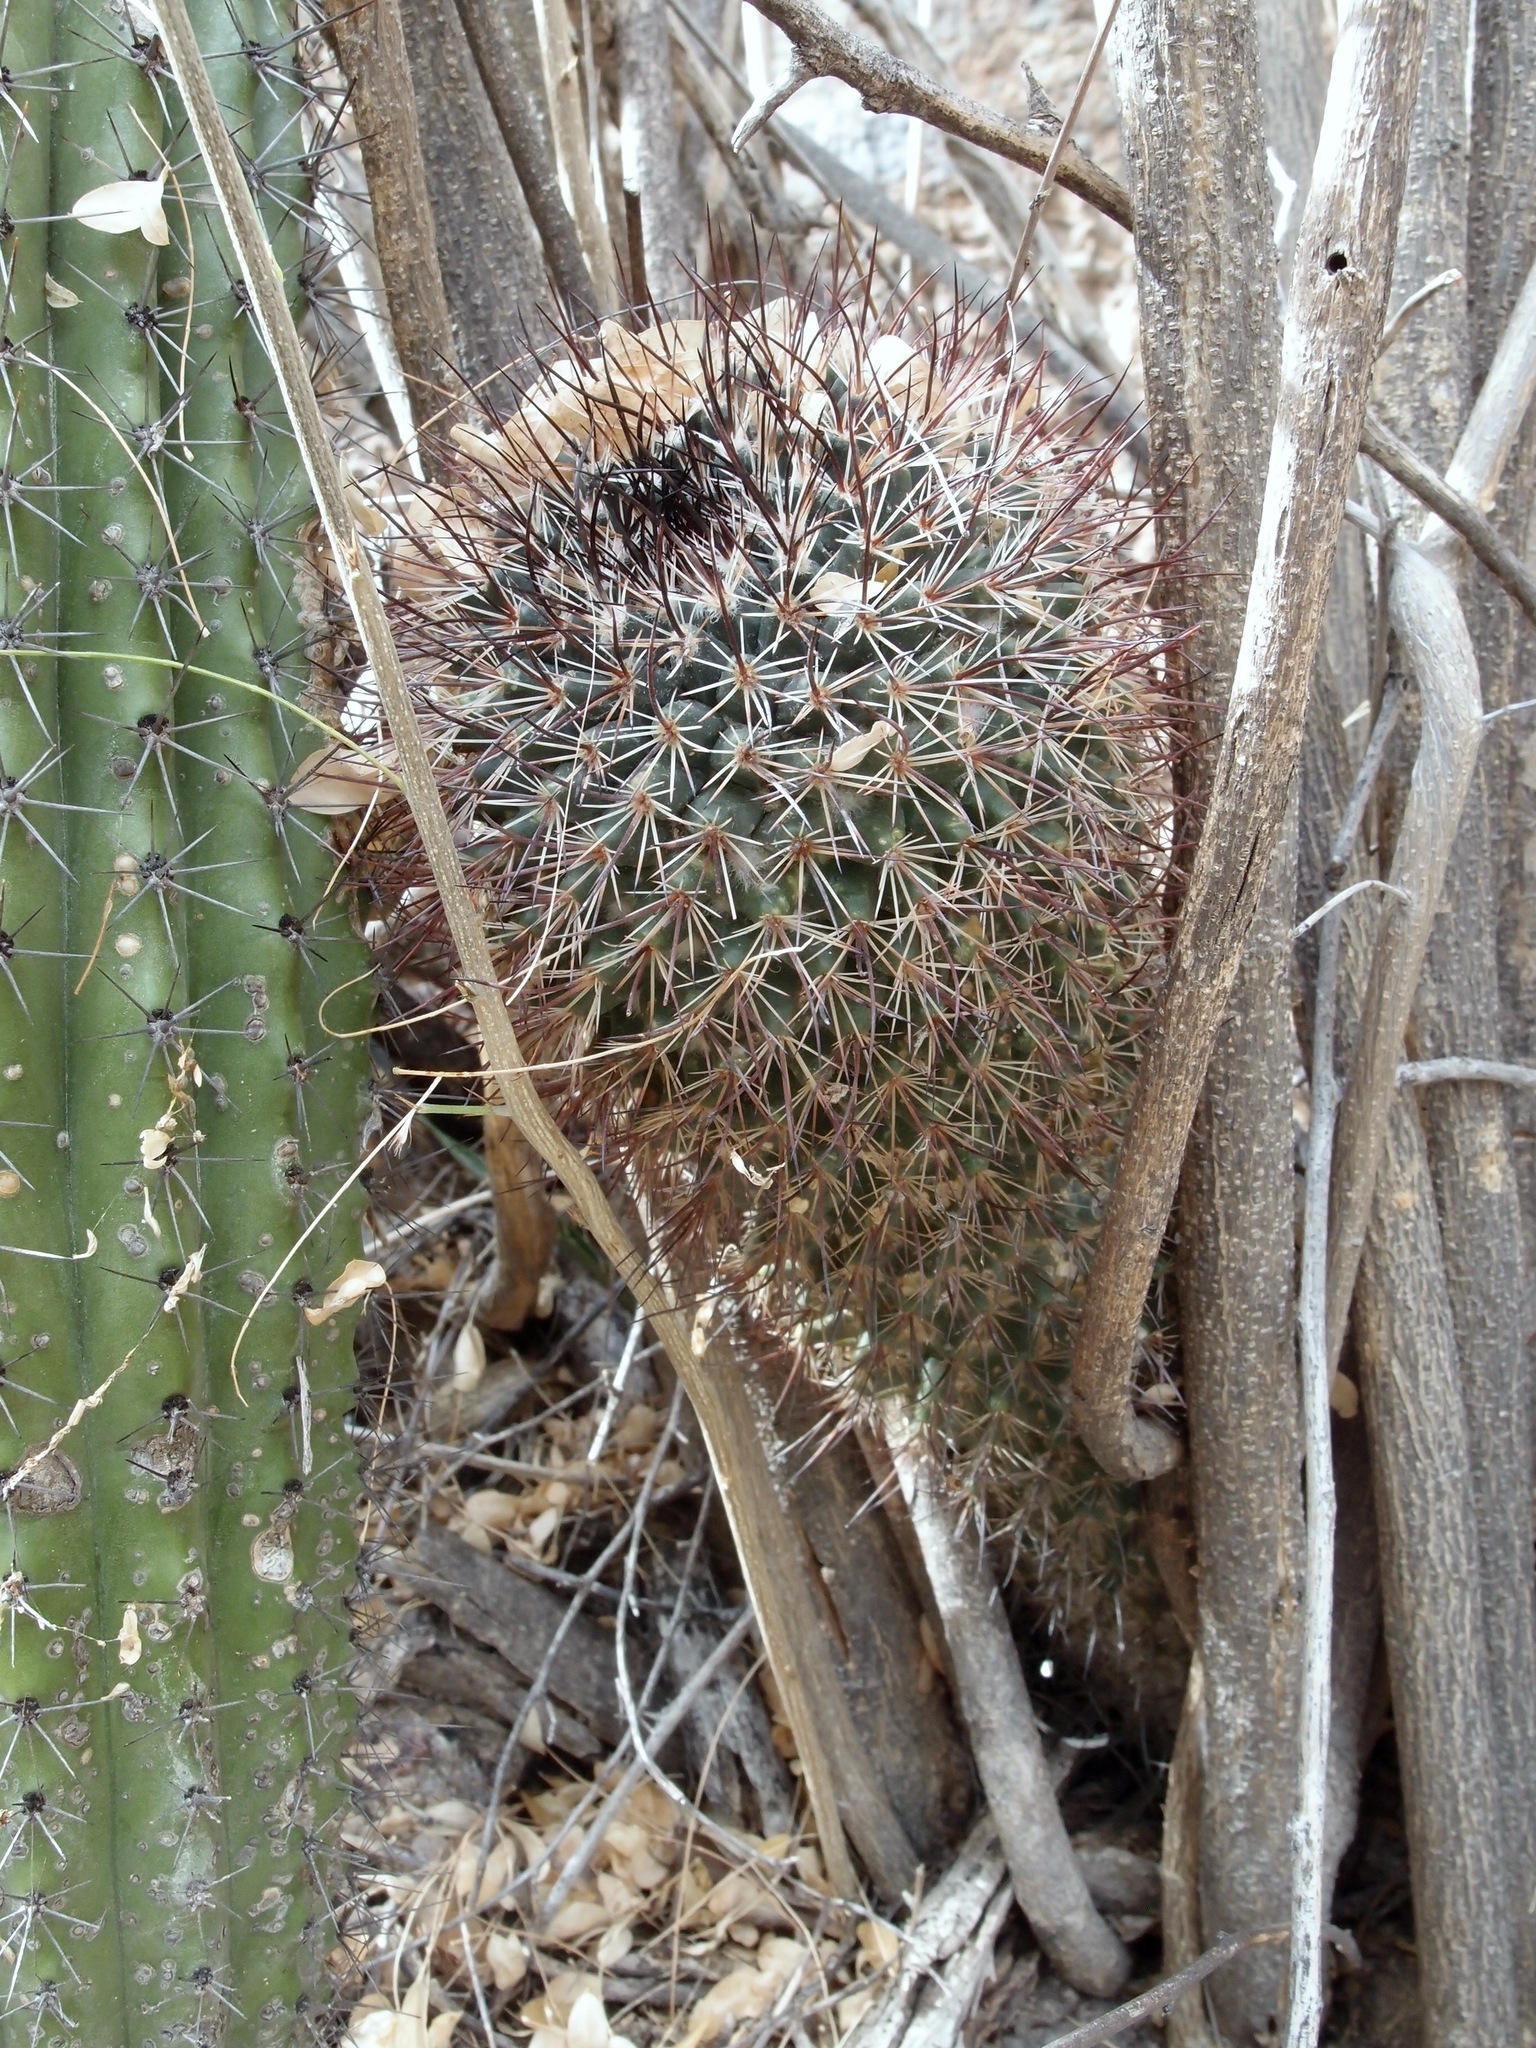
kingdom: Plantae
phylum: Tracheophyta
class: Magnoliopsida
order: Caryophyllales
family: Cactaceae
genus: Mammillaria
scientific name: Mammillaria johnstonii
